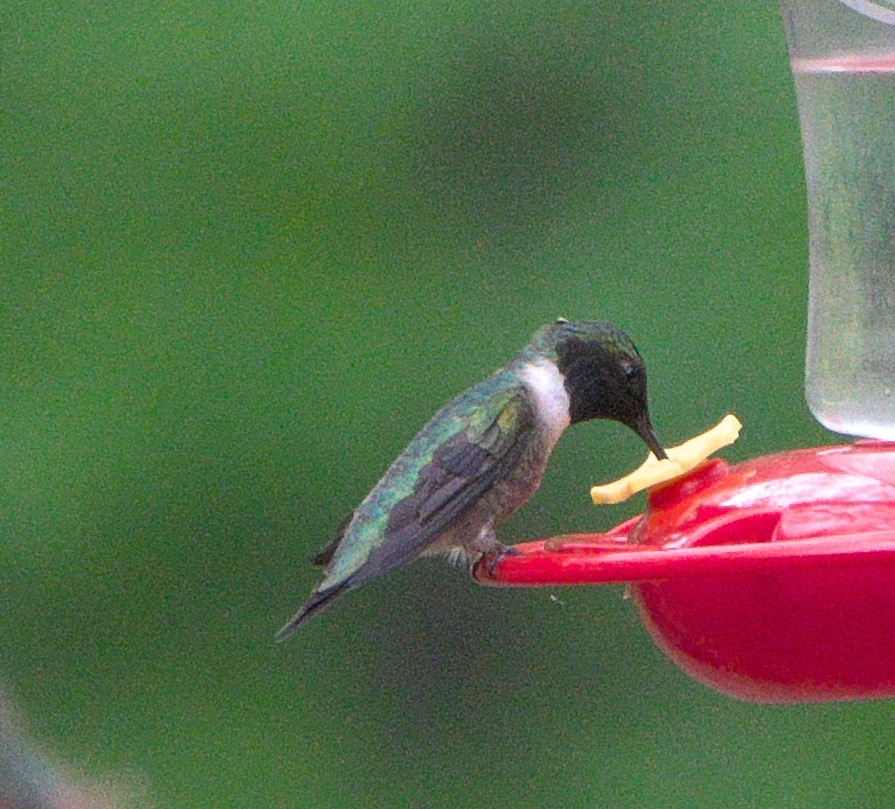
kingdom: Animalia
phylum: Chordata
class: Aves
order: Apodiformes
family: Trochilidae
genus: Archilochus
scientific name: Archilochus colubris
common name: Ruby-throated hummingbird
